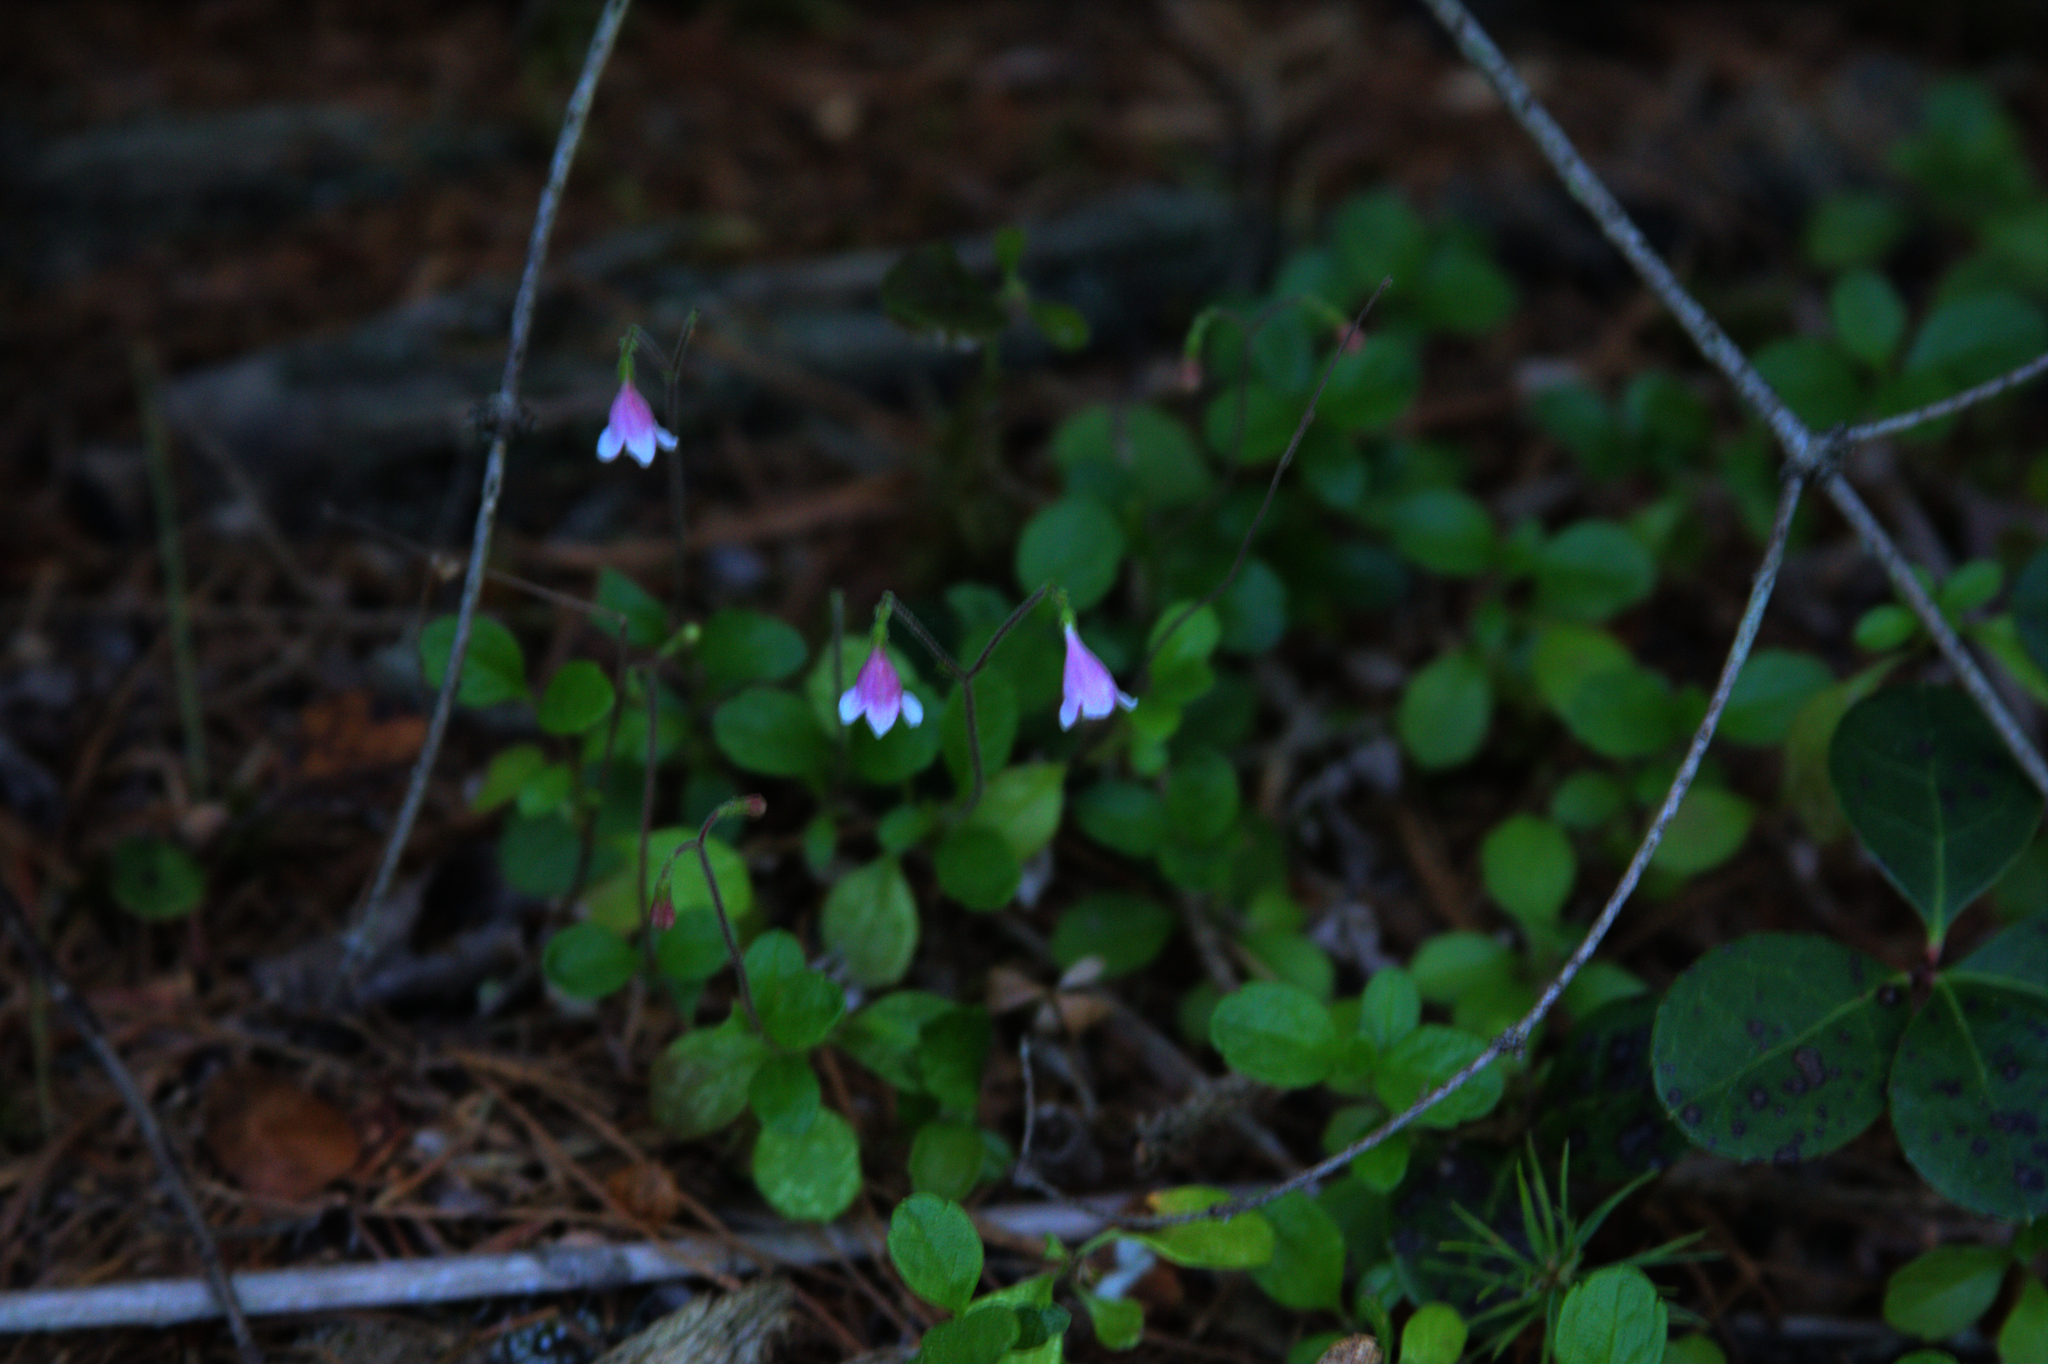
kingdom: Plantae
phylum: Tracheophyta
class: Magnoliopsida
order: Dipsacales
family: Caprifoliaceae
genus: Linnaea
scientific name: Linnaea borealis
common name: Twinflower
